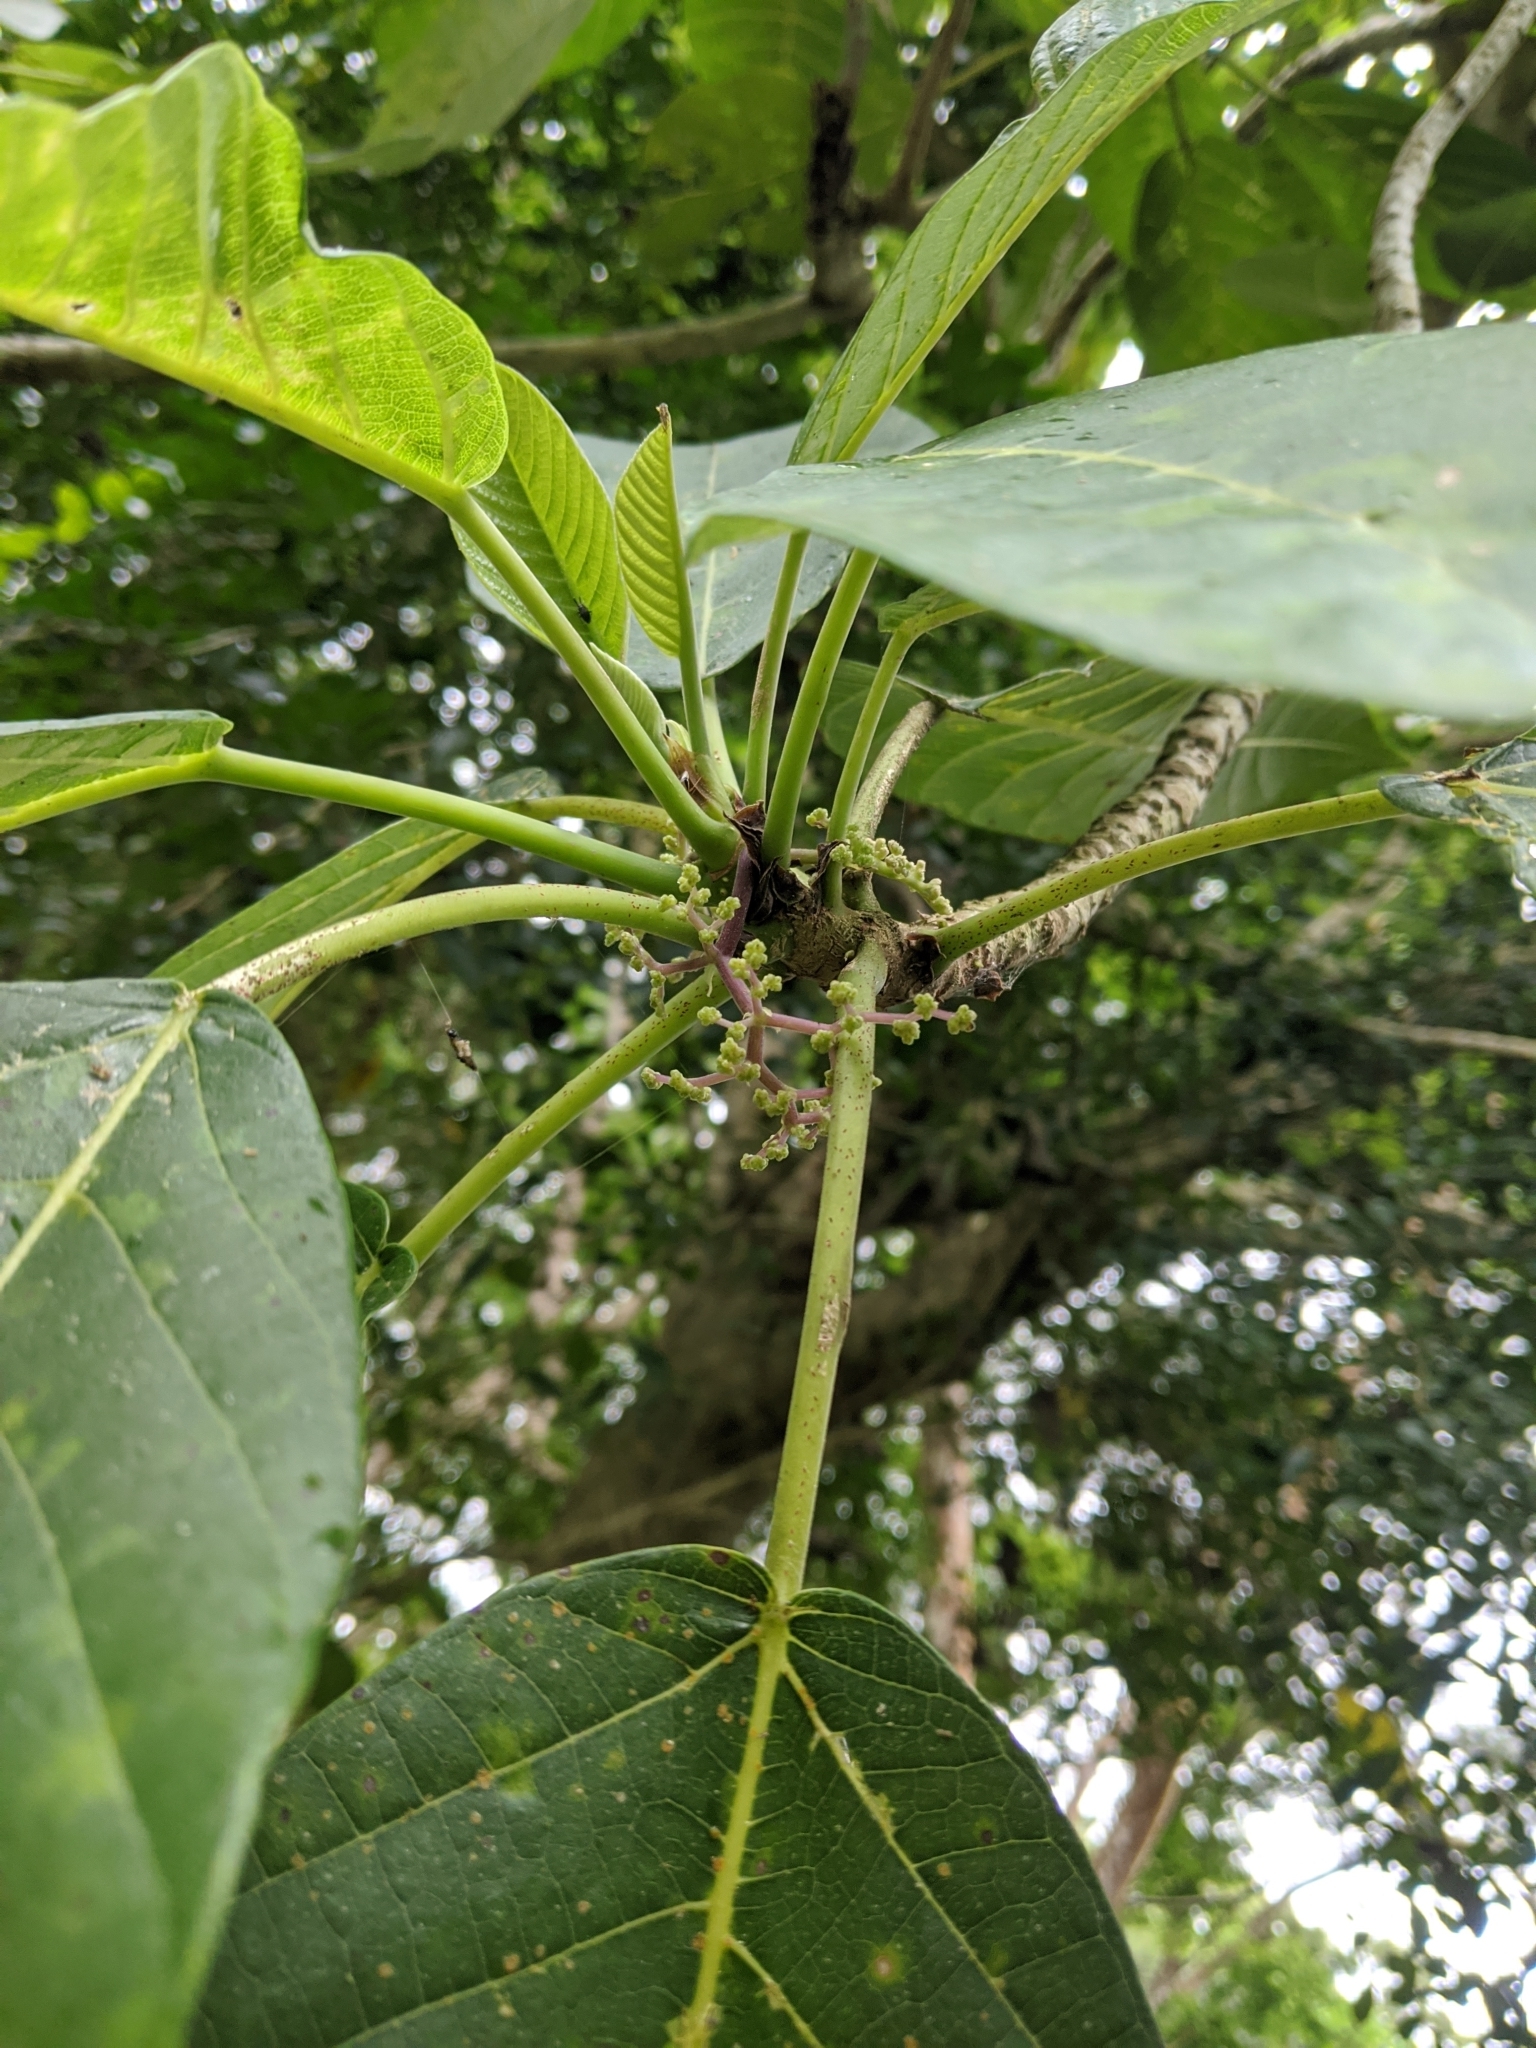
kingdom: Plantae
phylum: Tracheophyta
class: Magnoliopsida
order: Rosales
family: Urticaceae
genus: Dendrocnide
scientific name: Dendrocnide meyeniana
